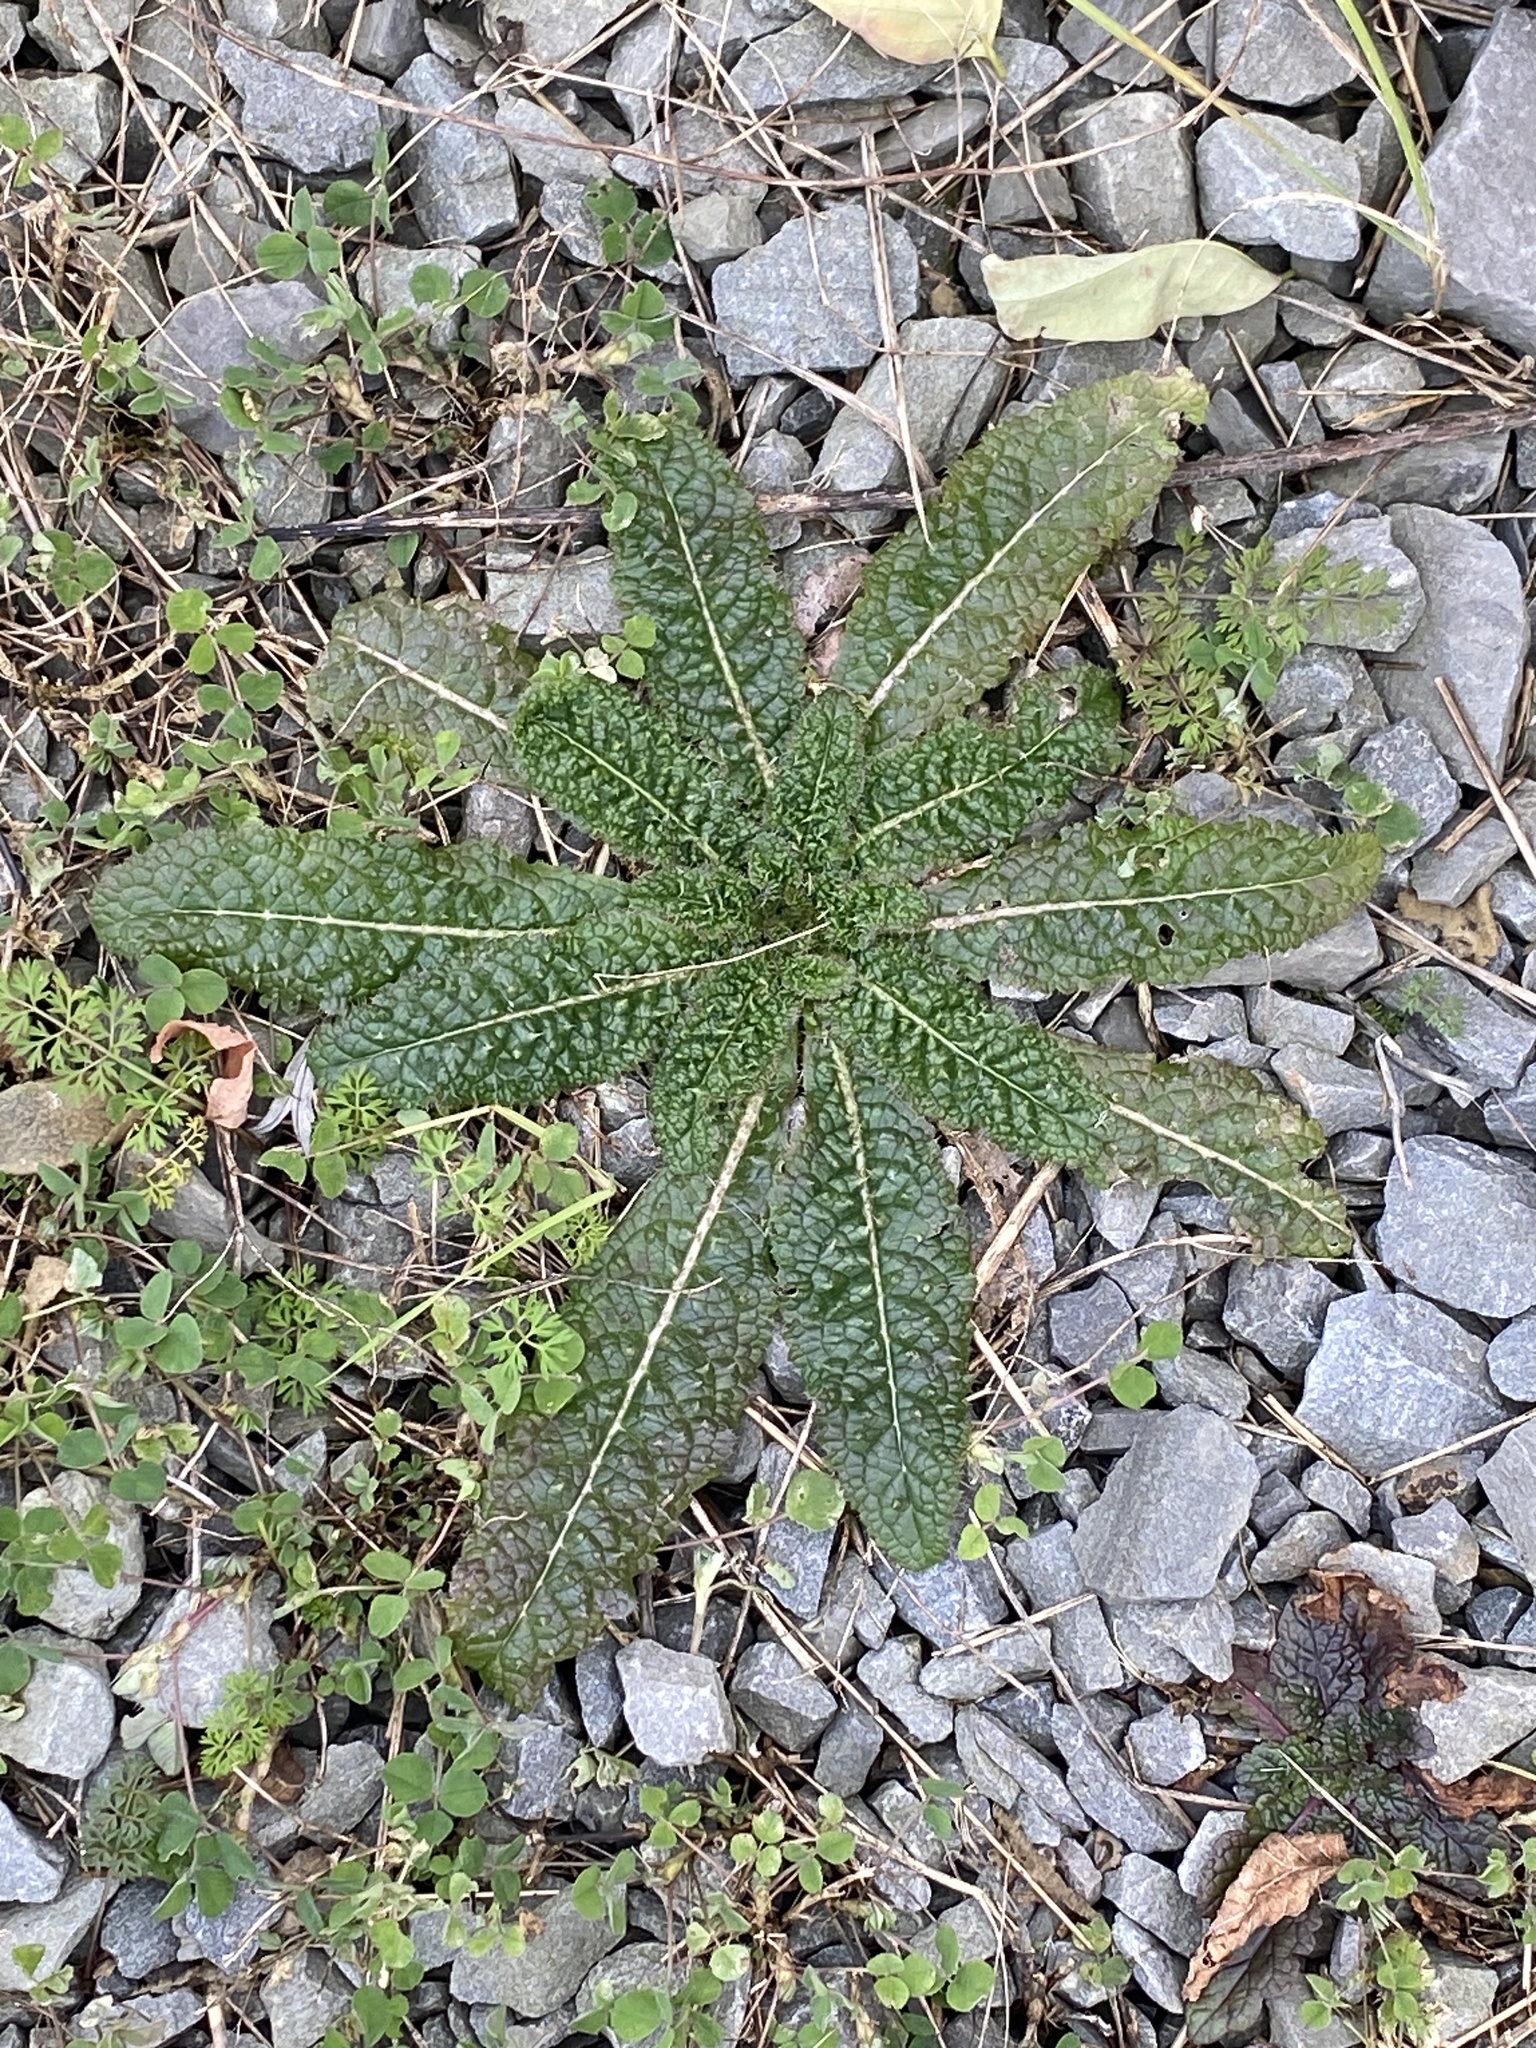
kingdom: Plantae
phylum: Tracheophyta
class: Magnoliopsida
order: Dipsacales
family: Caprifoliaceae
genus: Dipsacus
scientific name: Dipsacus fullonum
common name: Teasel
